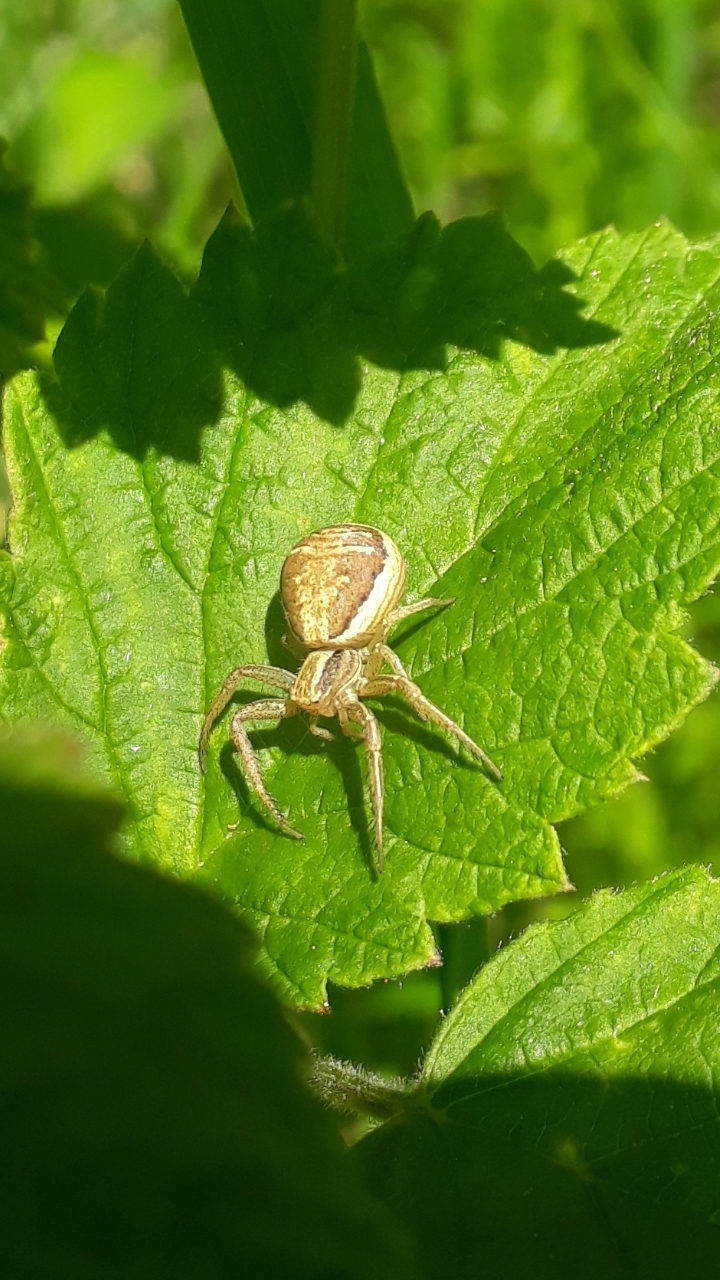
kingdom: Animalia
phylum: Arthropoda
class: Arachnida
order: Araneae
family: Thomisidae
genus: Xysticus
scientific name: Xysticus ulmi
